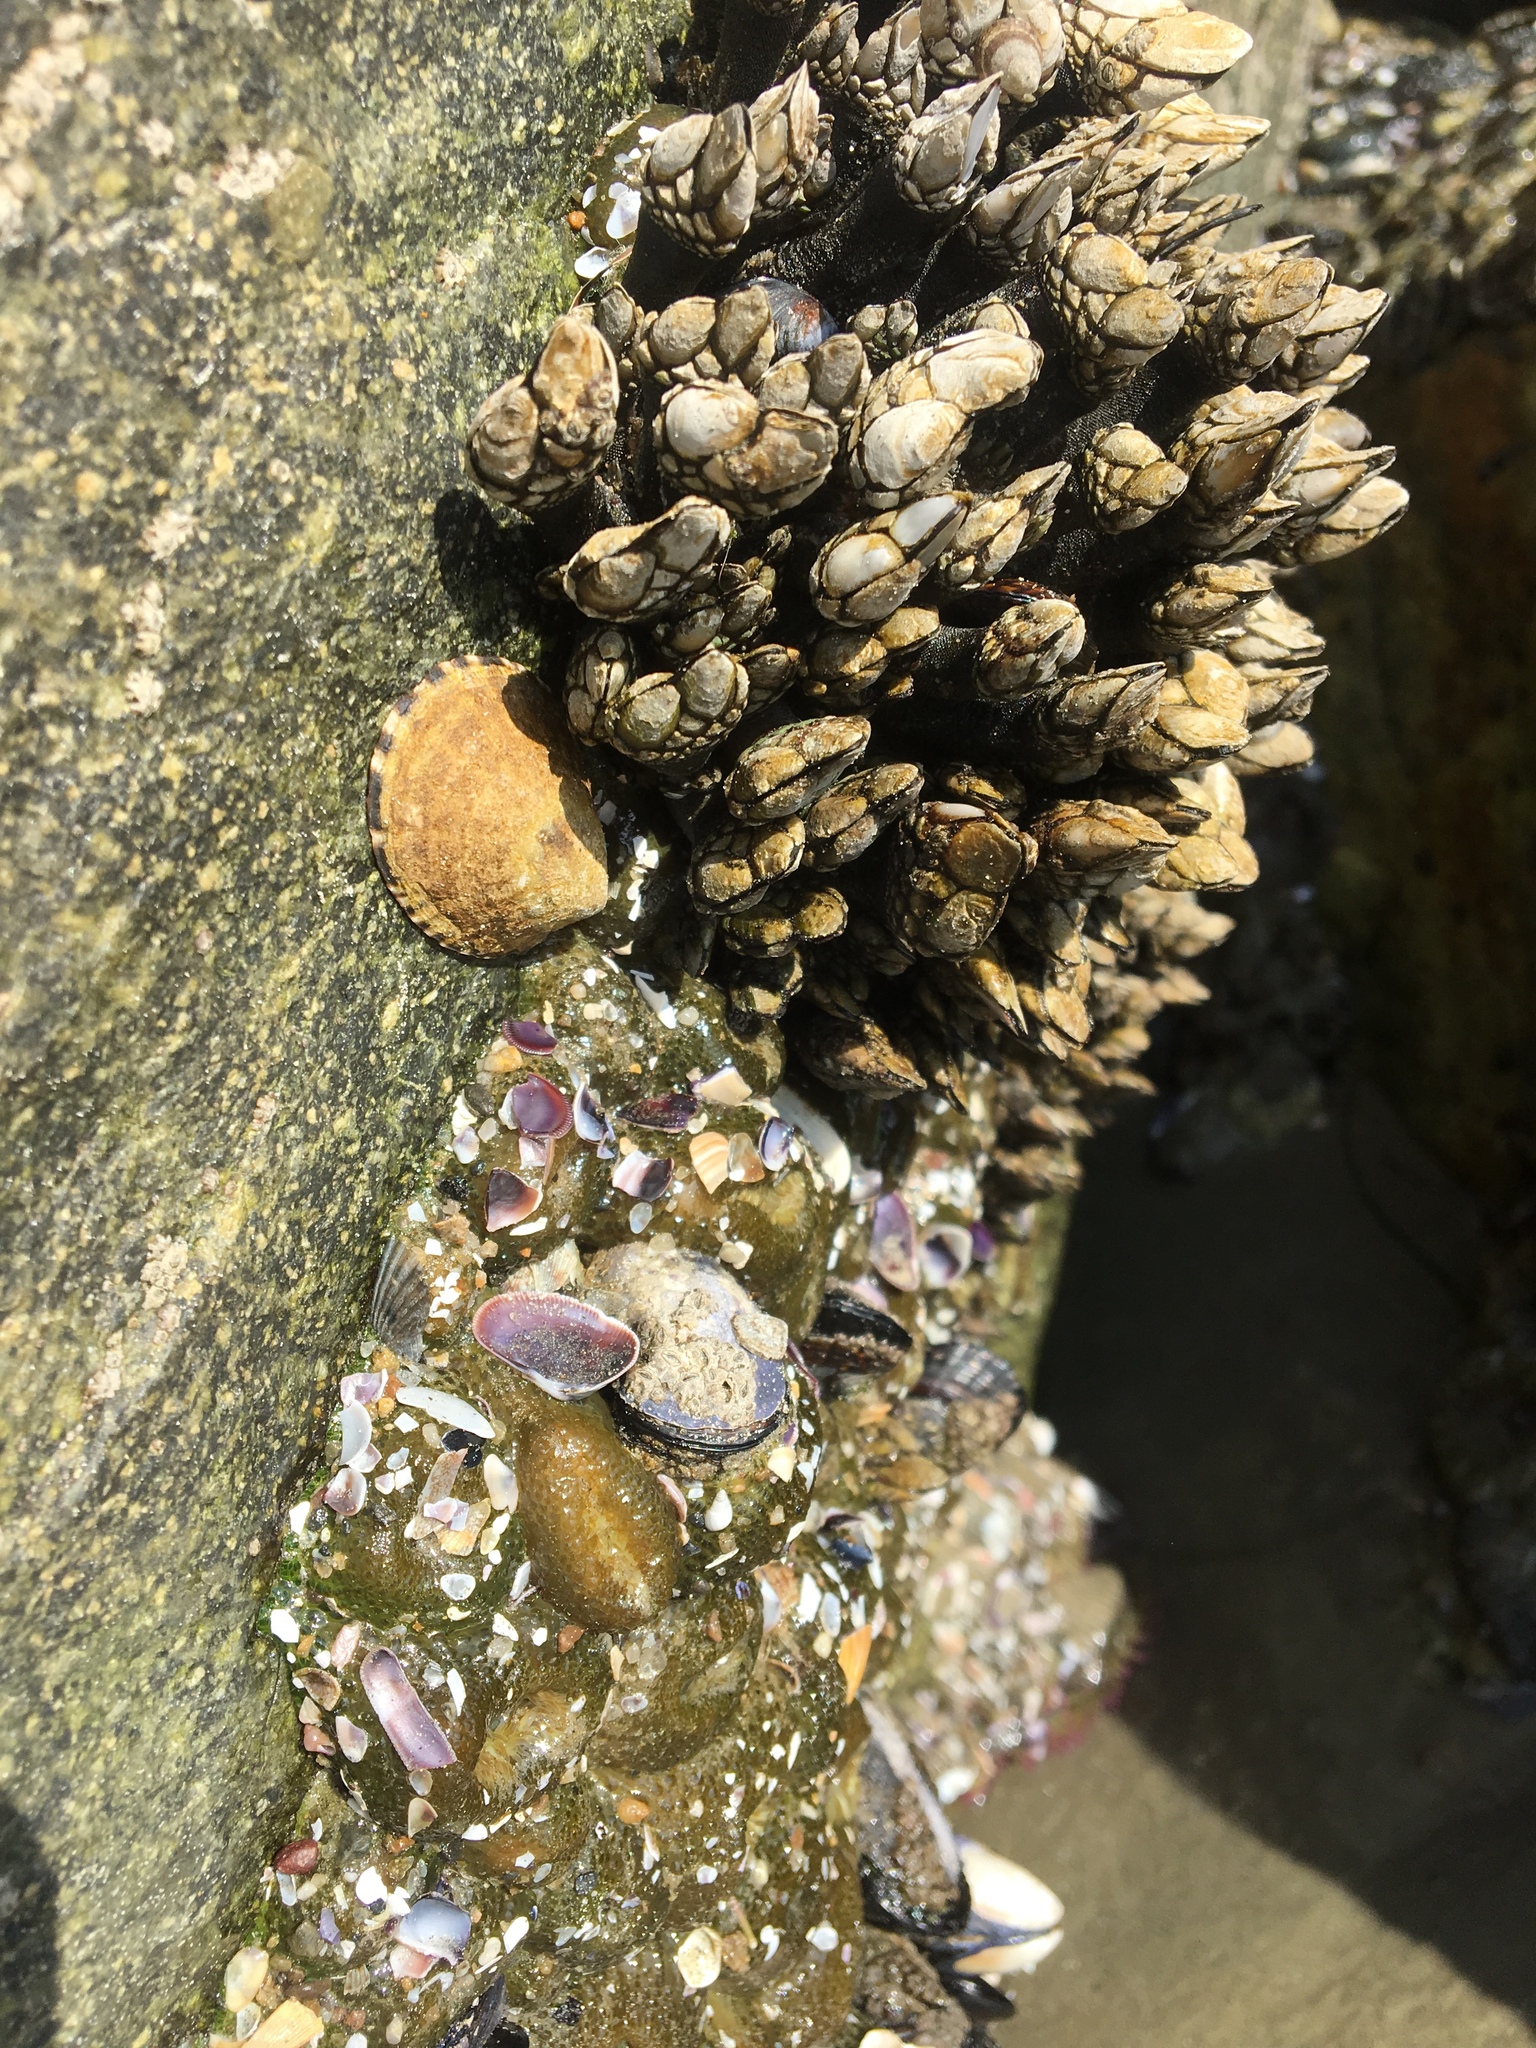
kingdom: Animalia
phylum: Arthropoda
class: Maxillopoda
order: Pedunculata
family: Pollicipedidae
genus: Pollicipes
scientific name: Pollicipes polymerus
